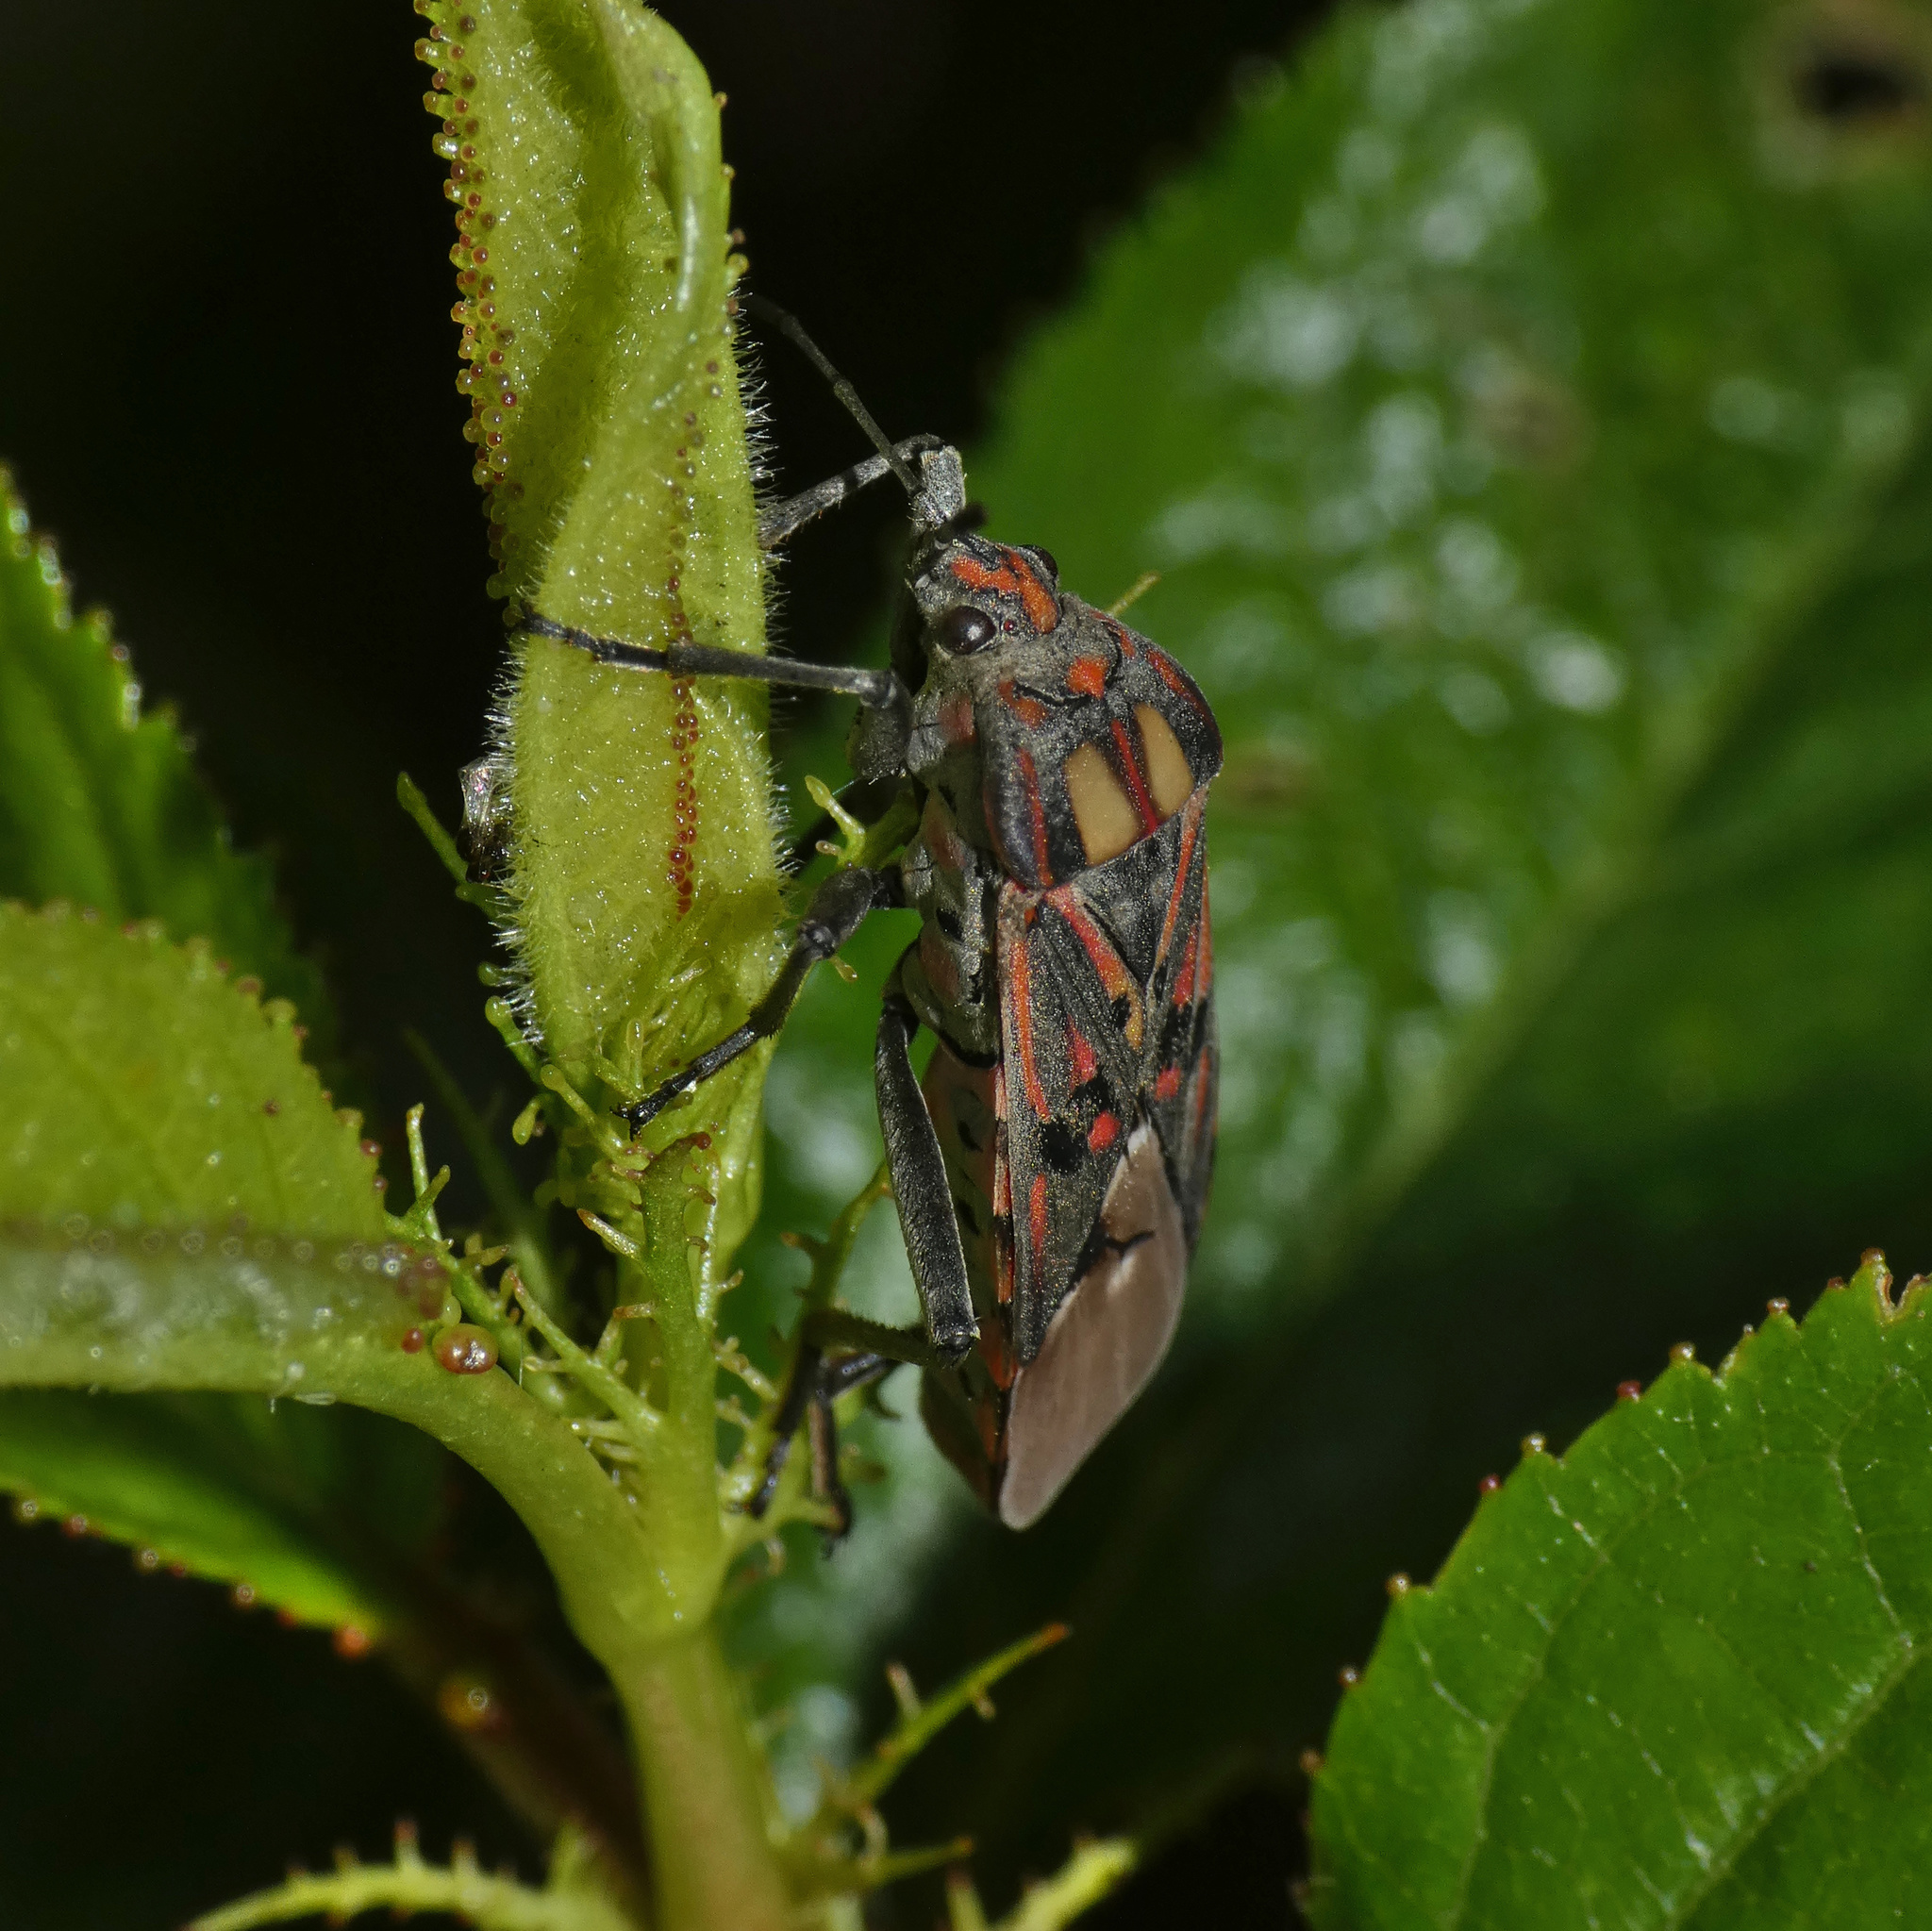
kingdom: Animalia
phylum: Arthropoda
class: Insecta
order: Hemiptera
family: Lygaeidae
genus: Spilostethus
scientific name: Spilostethus pandurus
